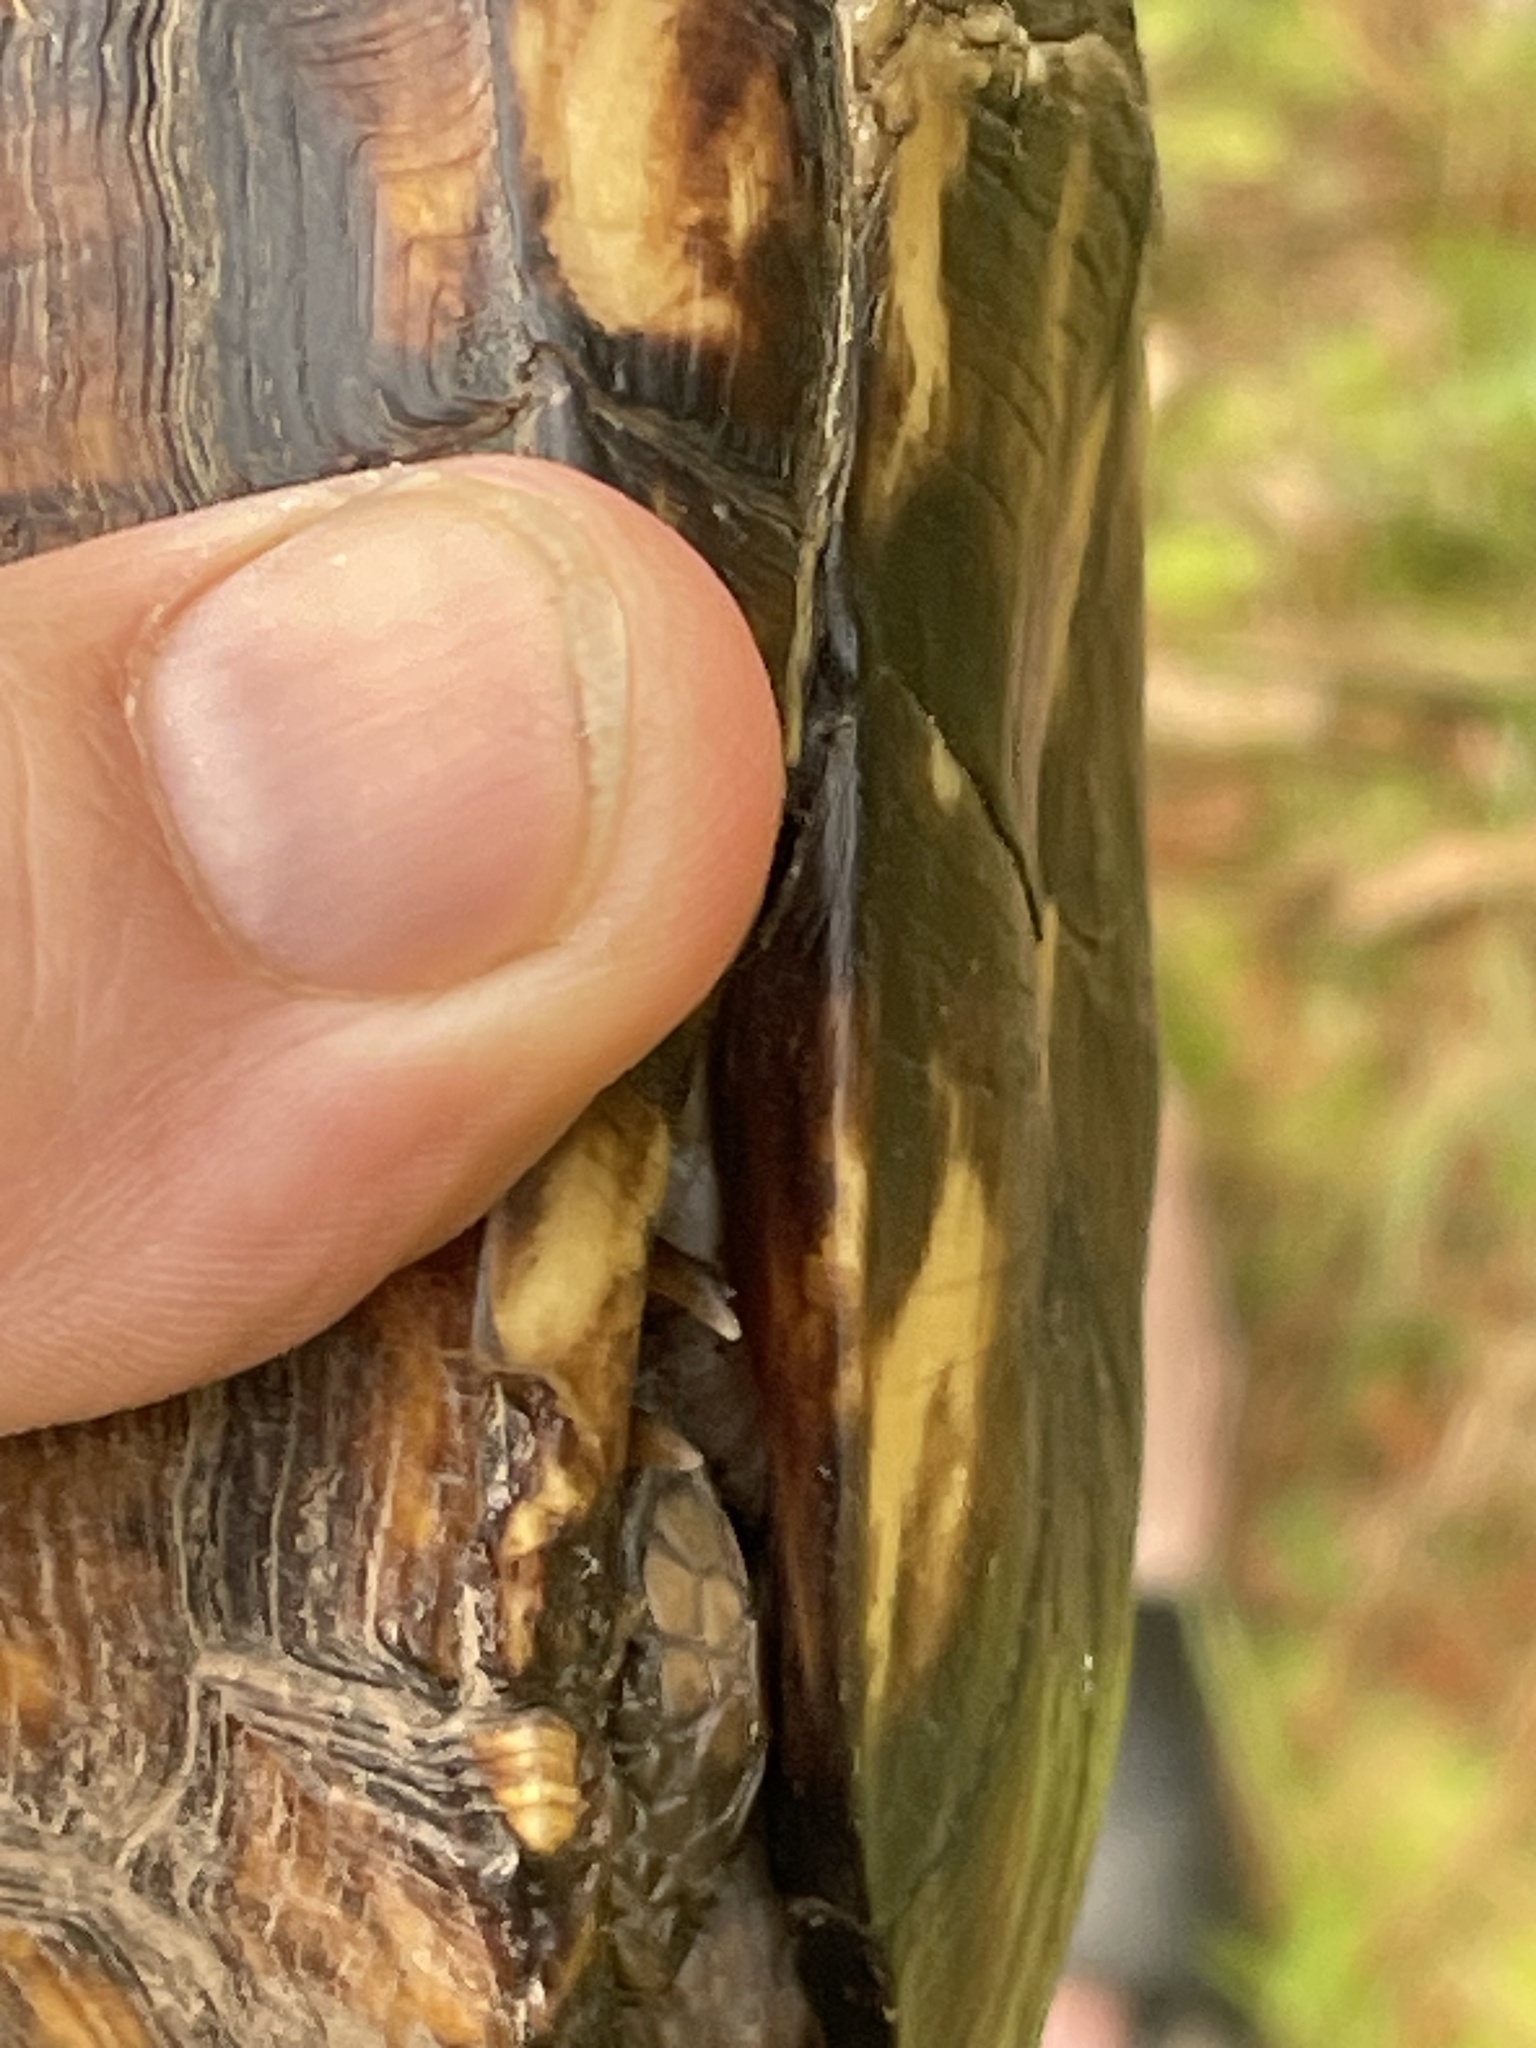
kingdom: Animalia
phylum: Chordata
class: Testudines
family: Emydidae
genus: Terrapene
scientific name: Terrapene carolina
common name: Common box turtle
